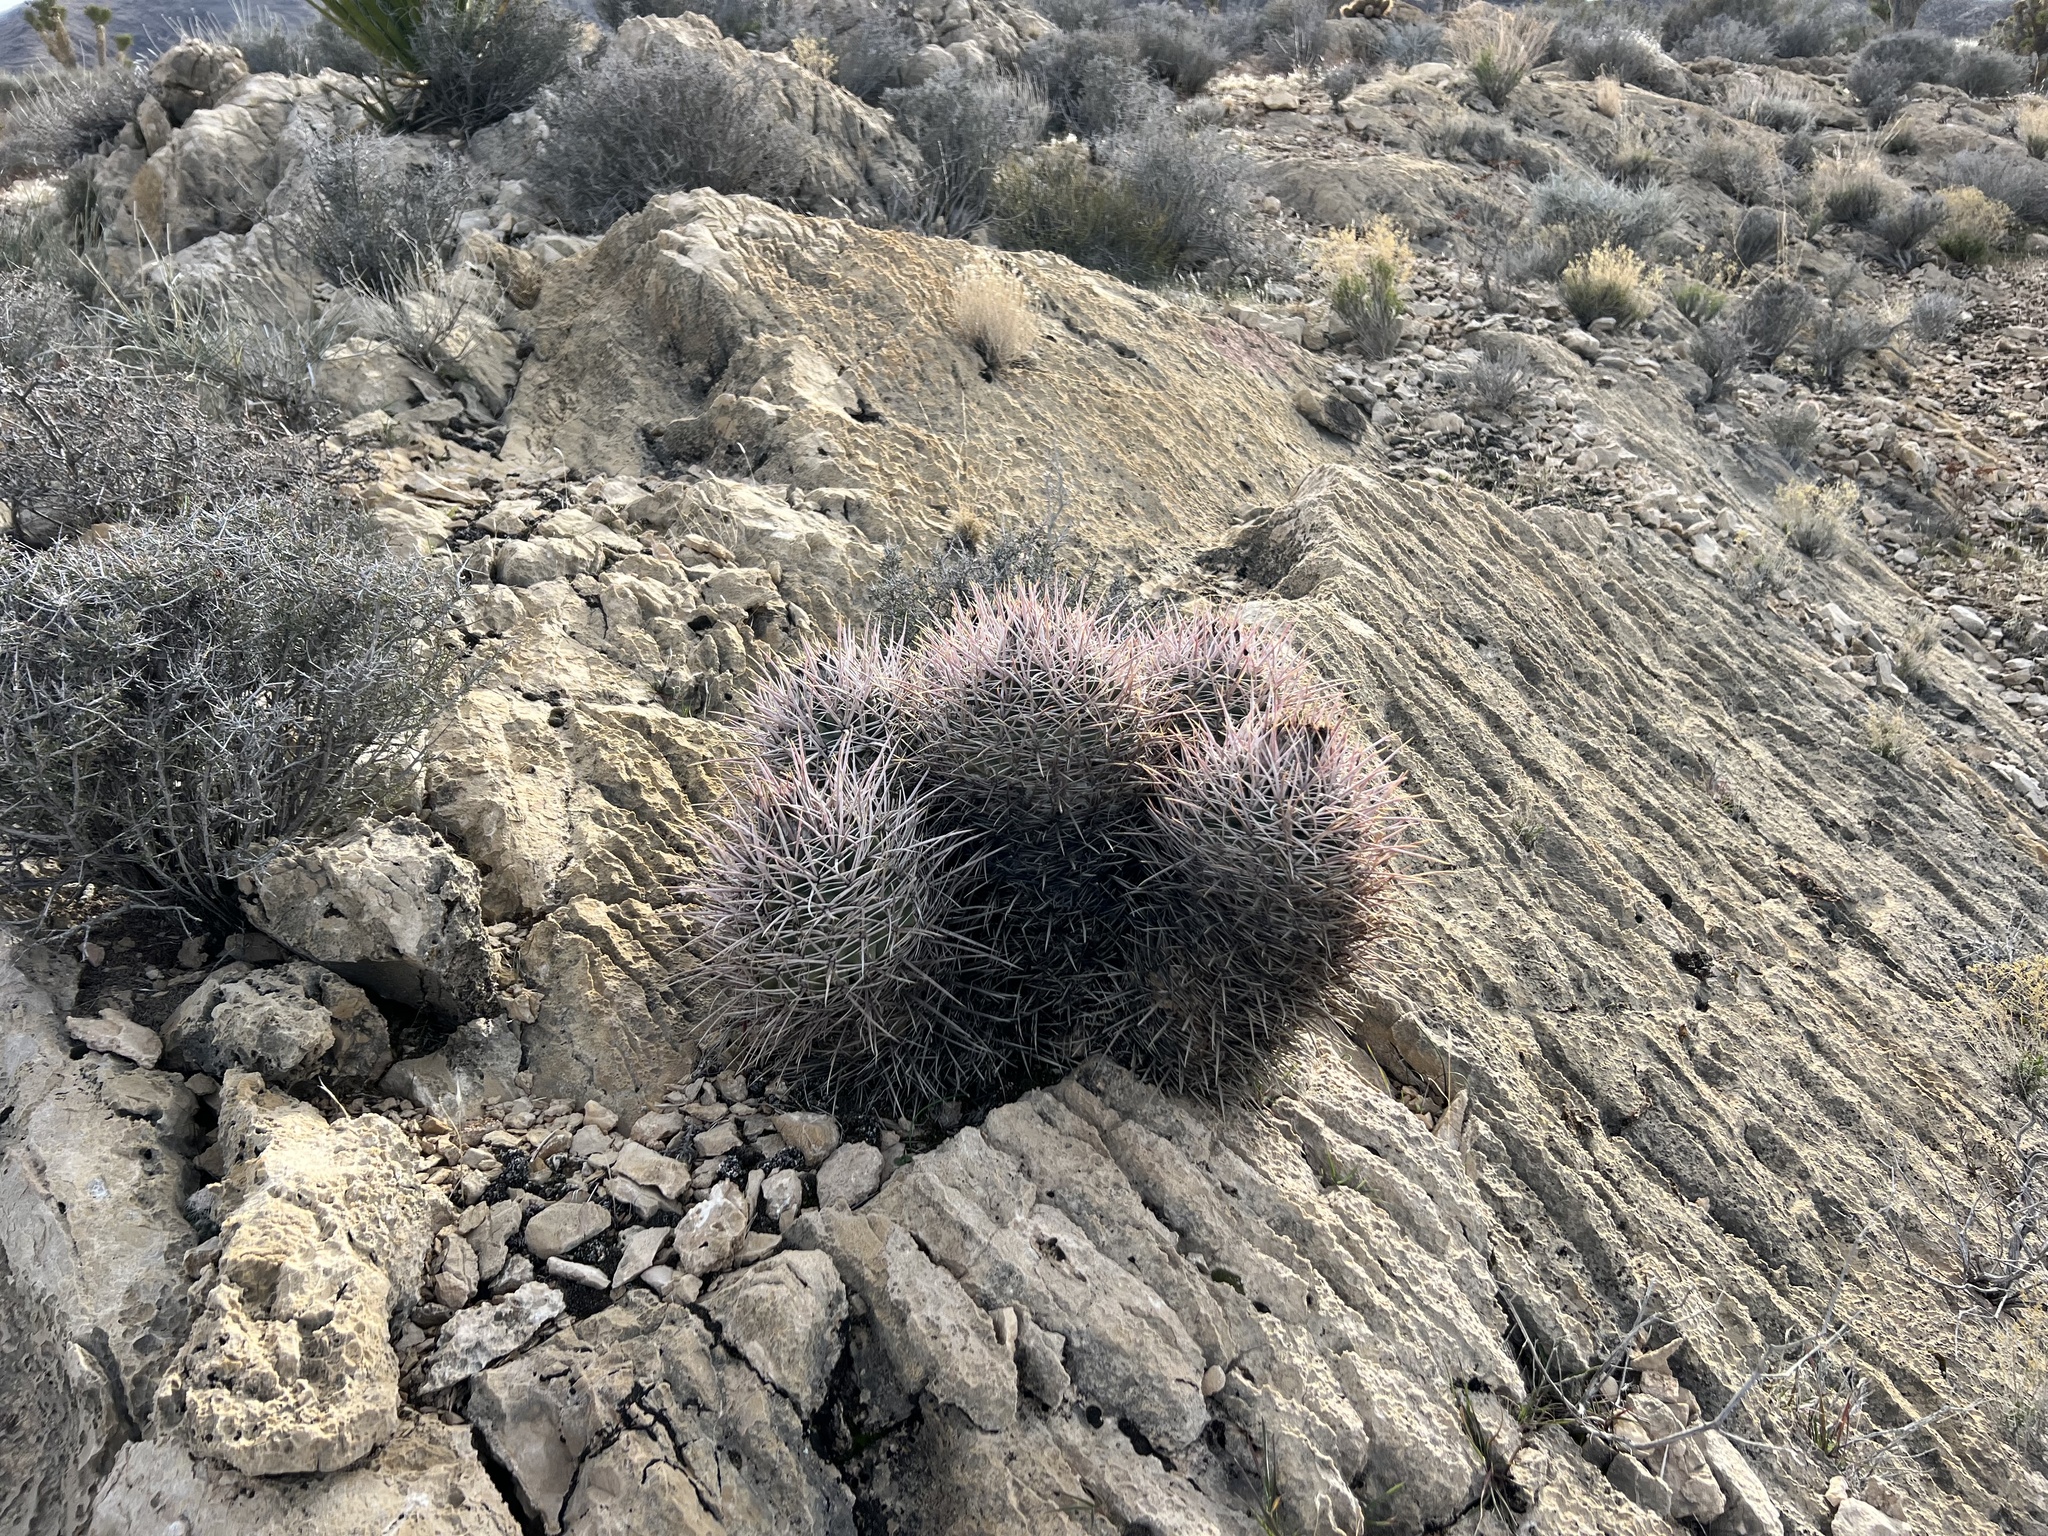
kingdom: Plantae
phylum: Tracheophyta
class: Magnoliopsida
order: Caryophyllales
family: Cactaceae
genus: Echinocactus
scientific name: Echinocactus polycephalus
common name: Cottontop cactus
